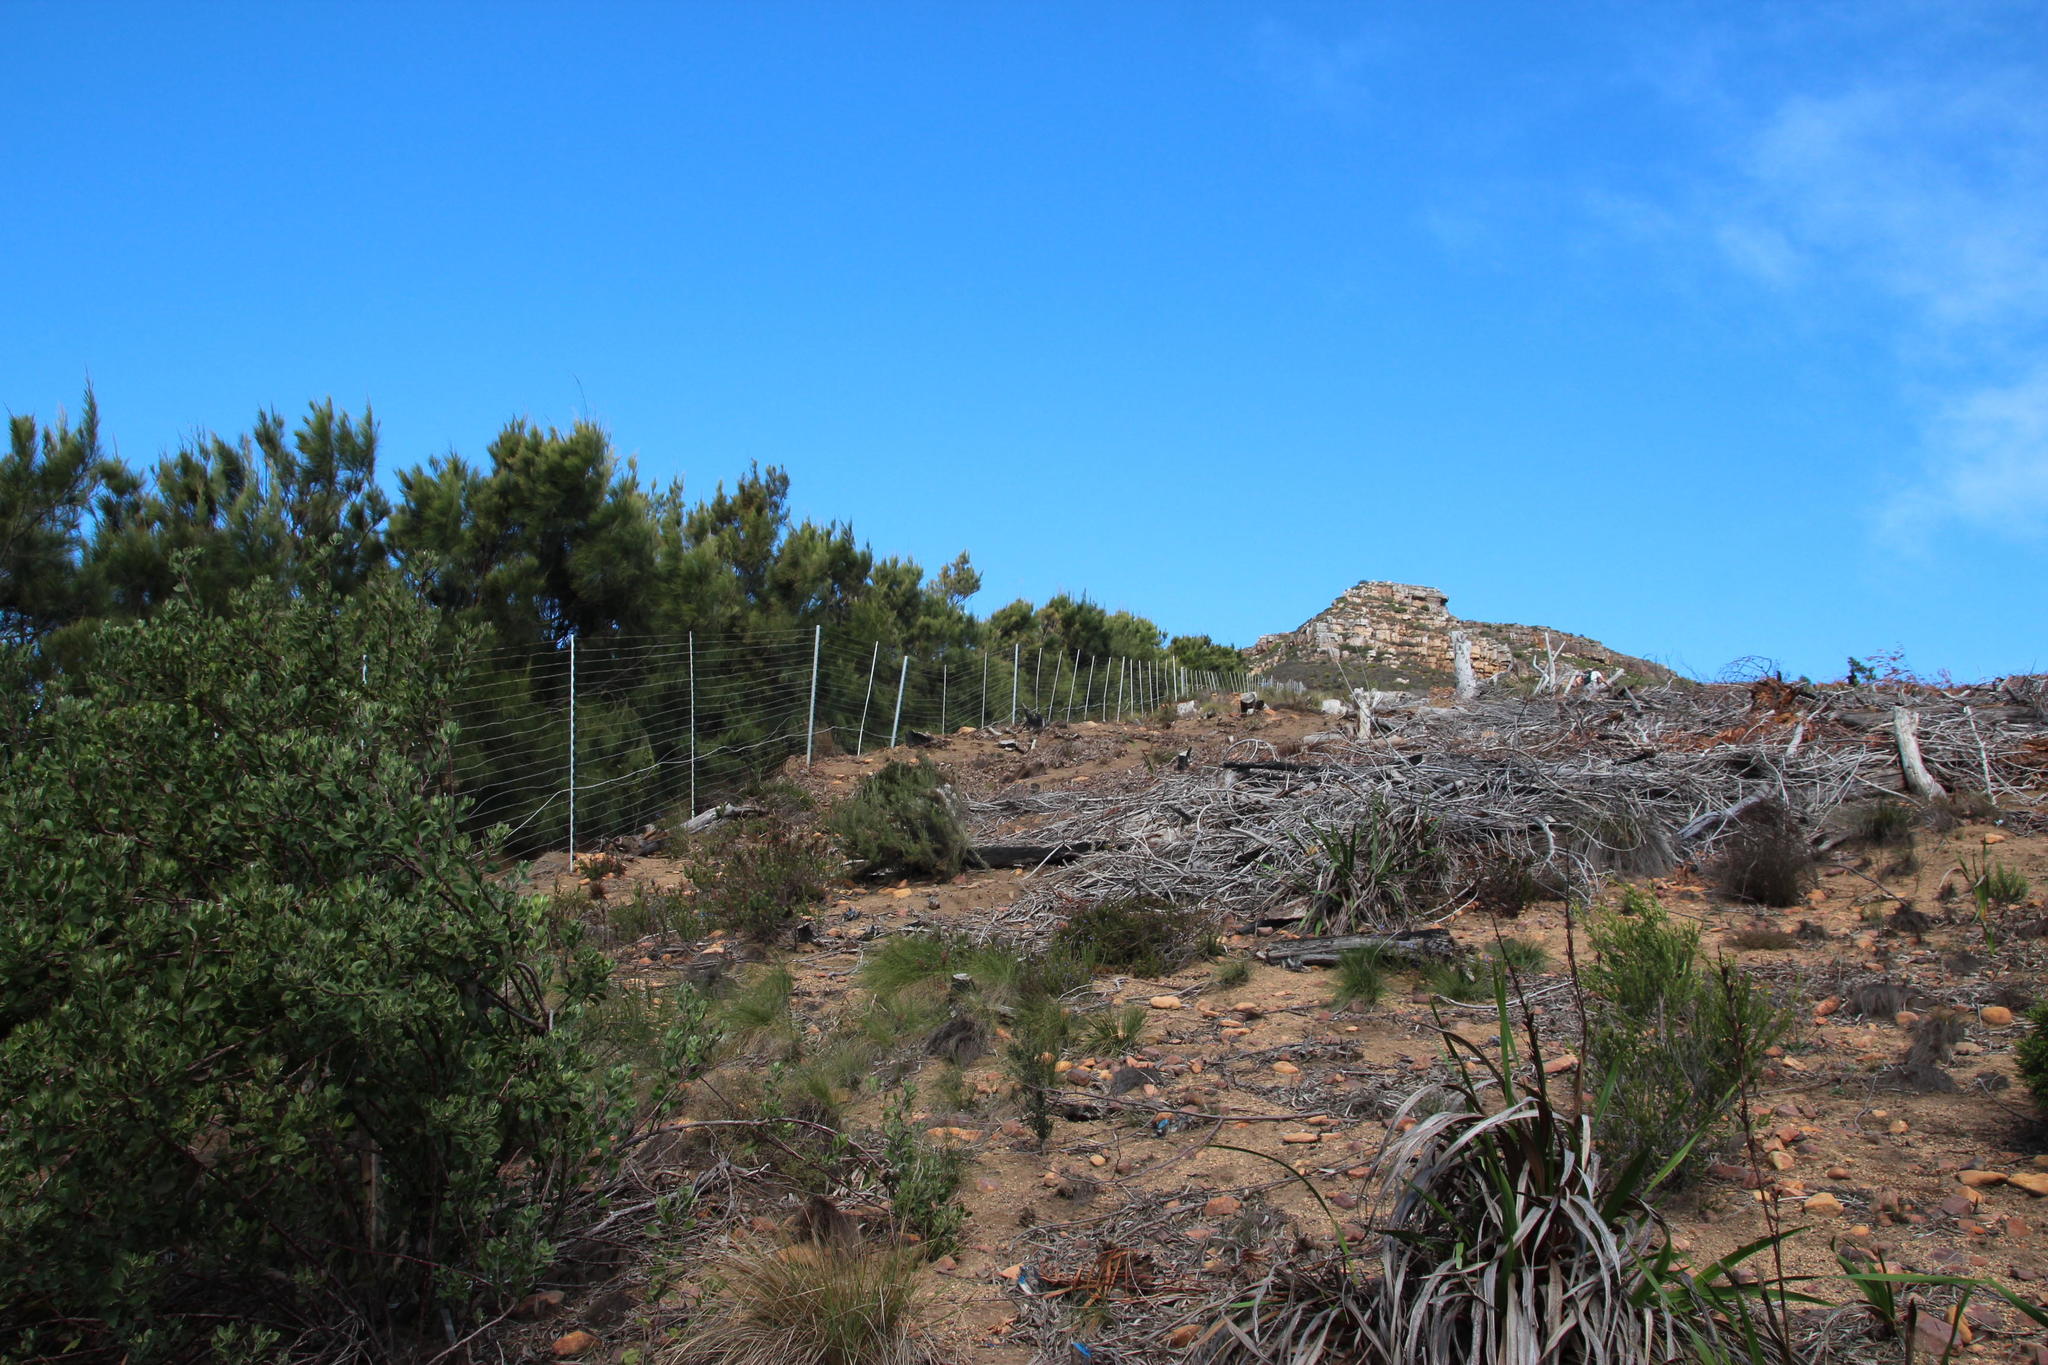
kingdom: Plantae
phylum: Tracheophyta
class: Magnoliopsida
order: Fagales
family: Casuarinaceae
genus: Casuarina
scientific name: Casuarina cunninghamiana
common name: River sheoak
